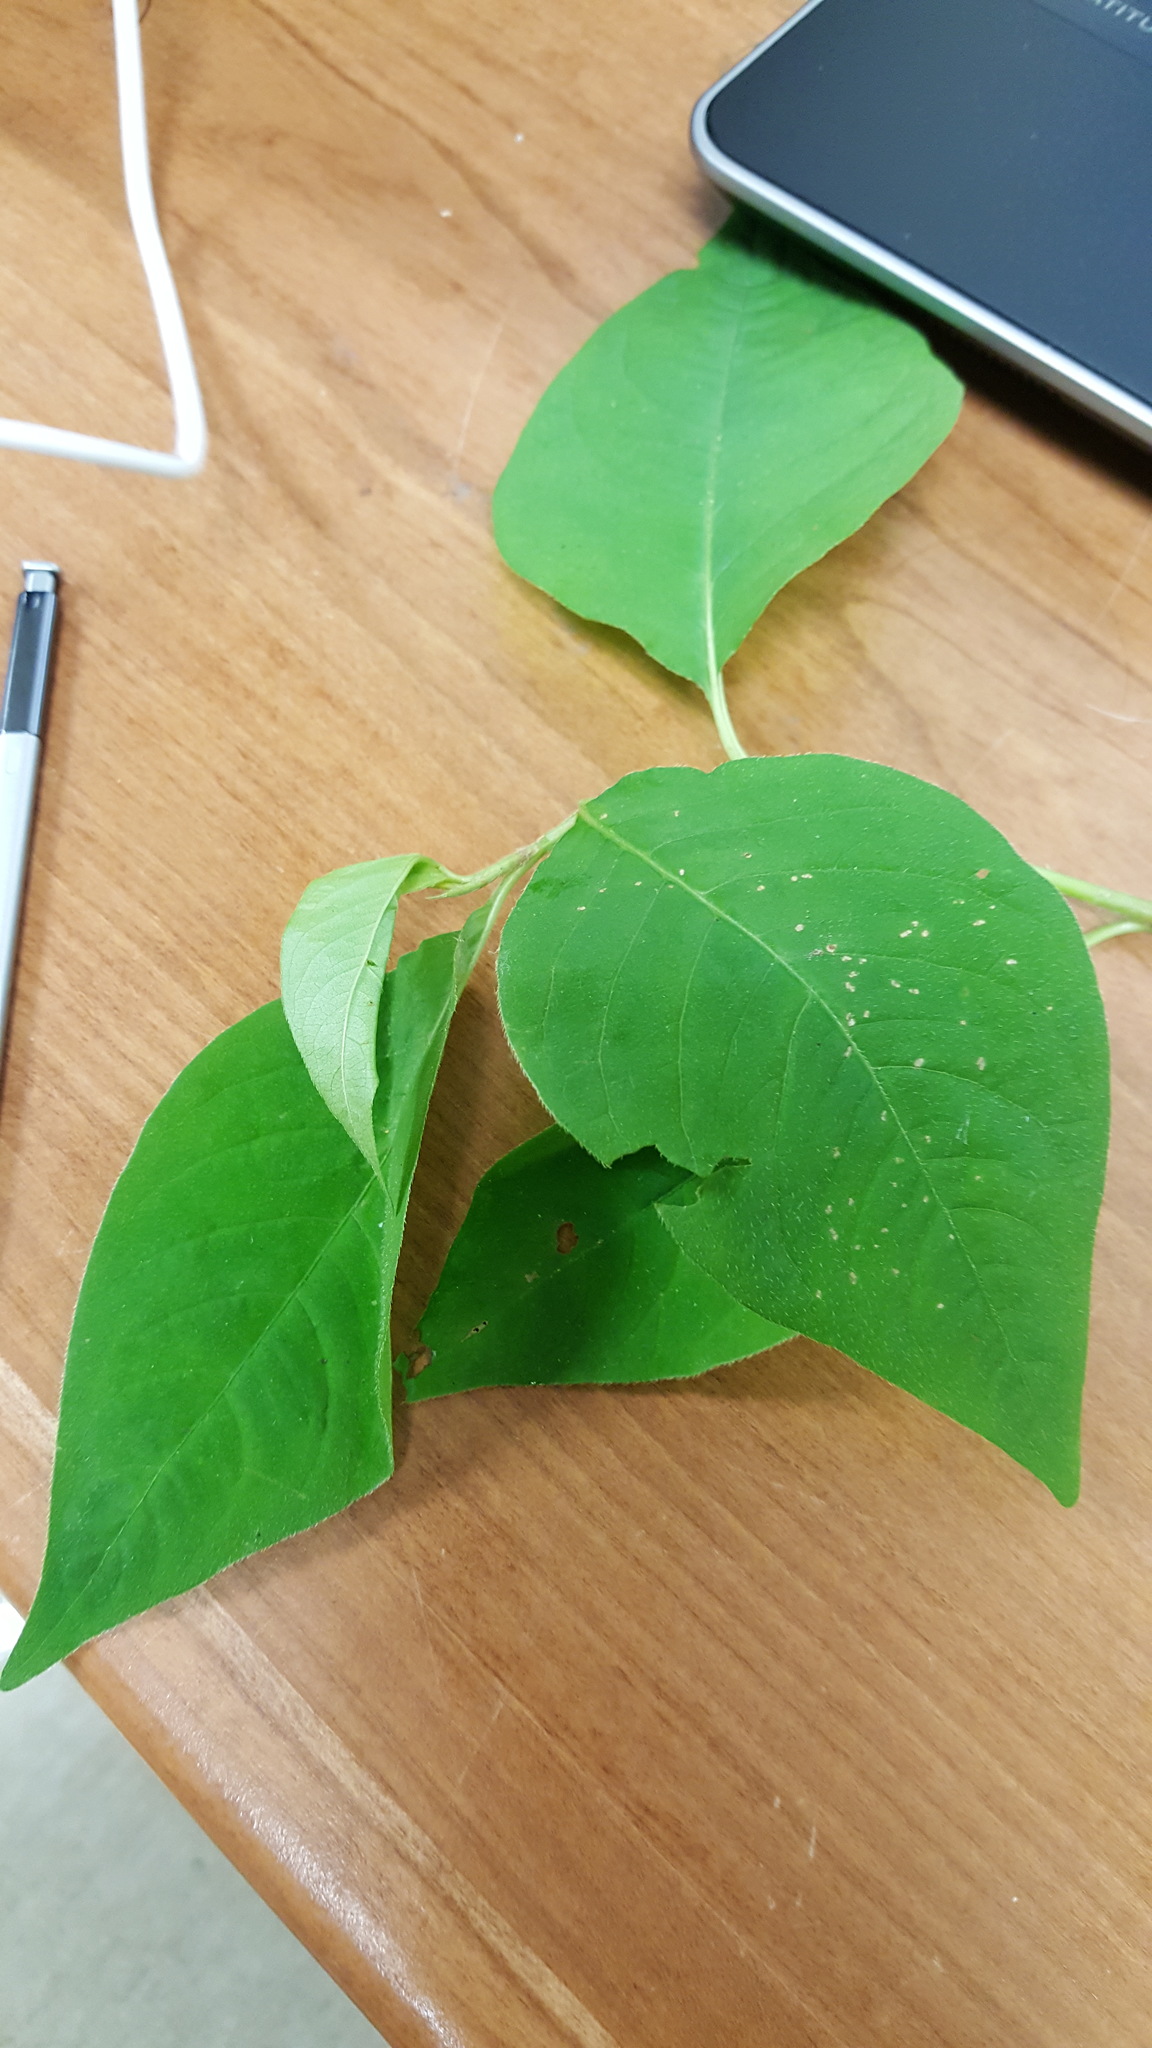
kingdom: Plantae
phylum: Tracheophyta
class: Magnoliopsida
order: Caryophyllales
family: Polygonaceae
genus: Persicaria
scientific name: Persicaria virginiana
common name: Jumpseed
